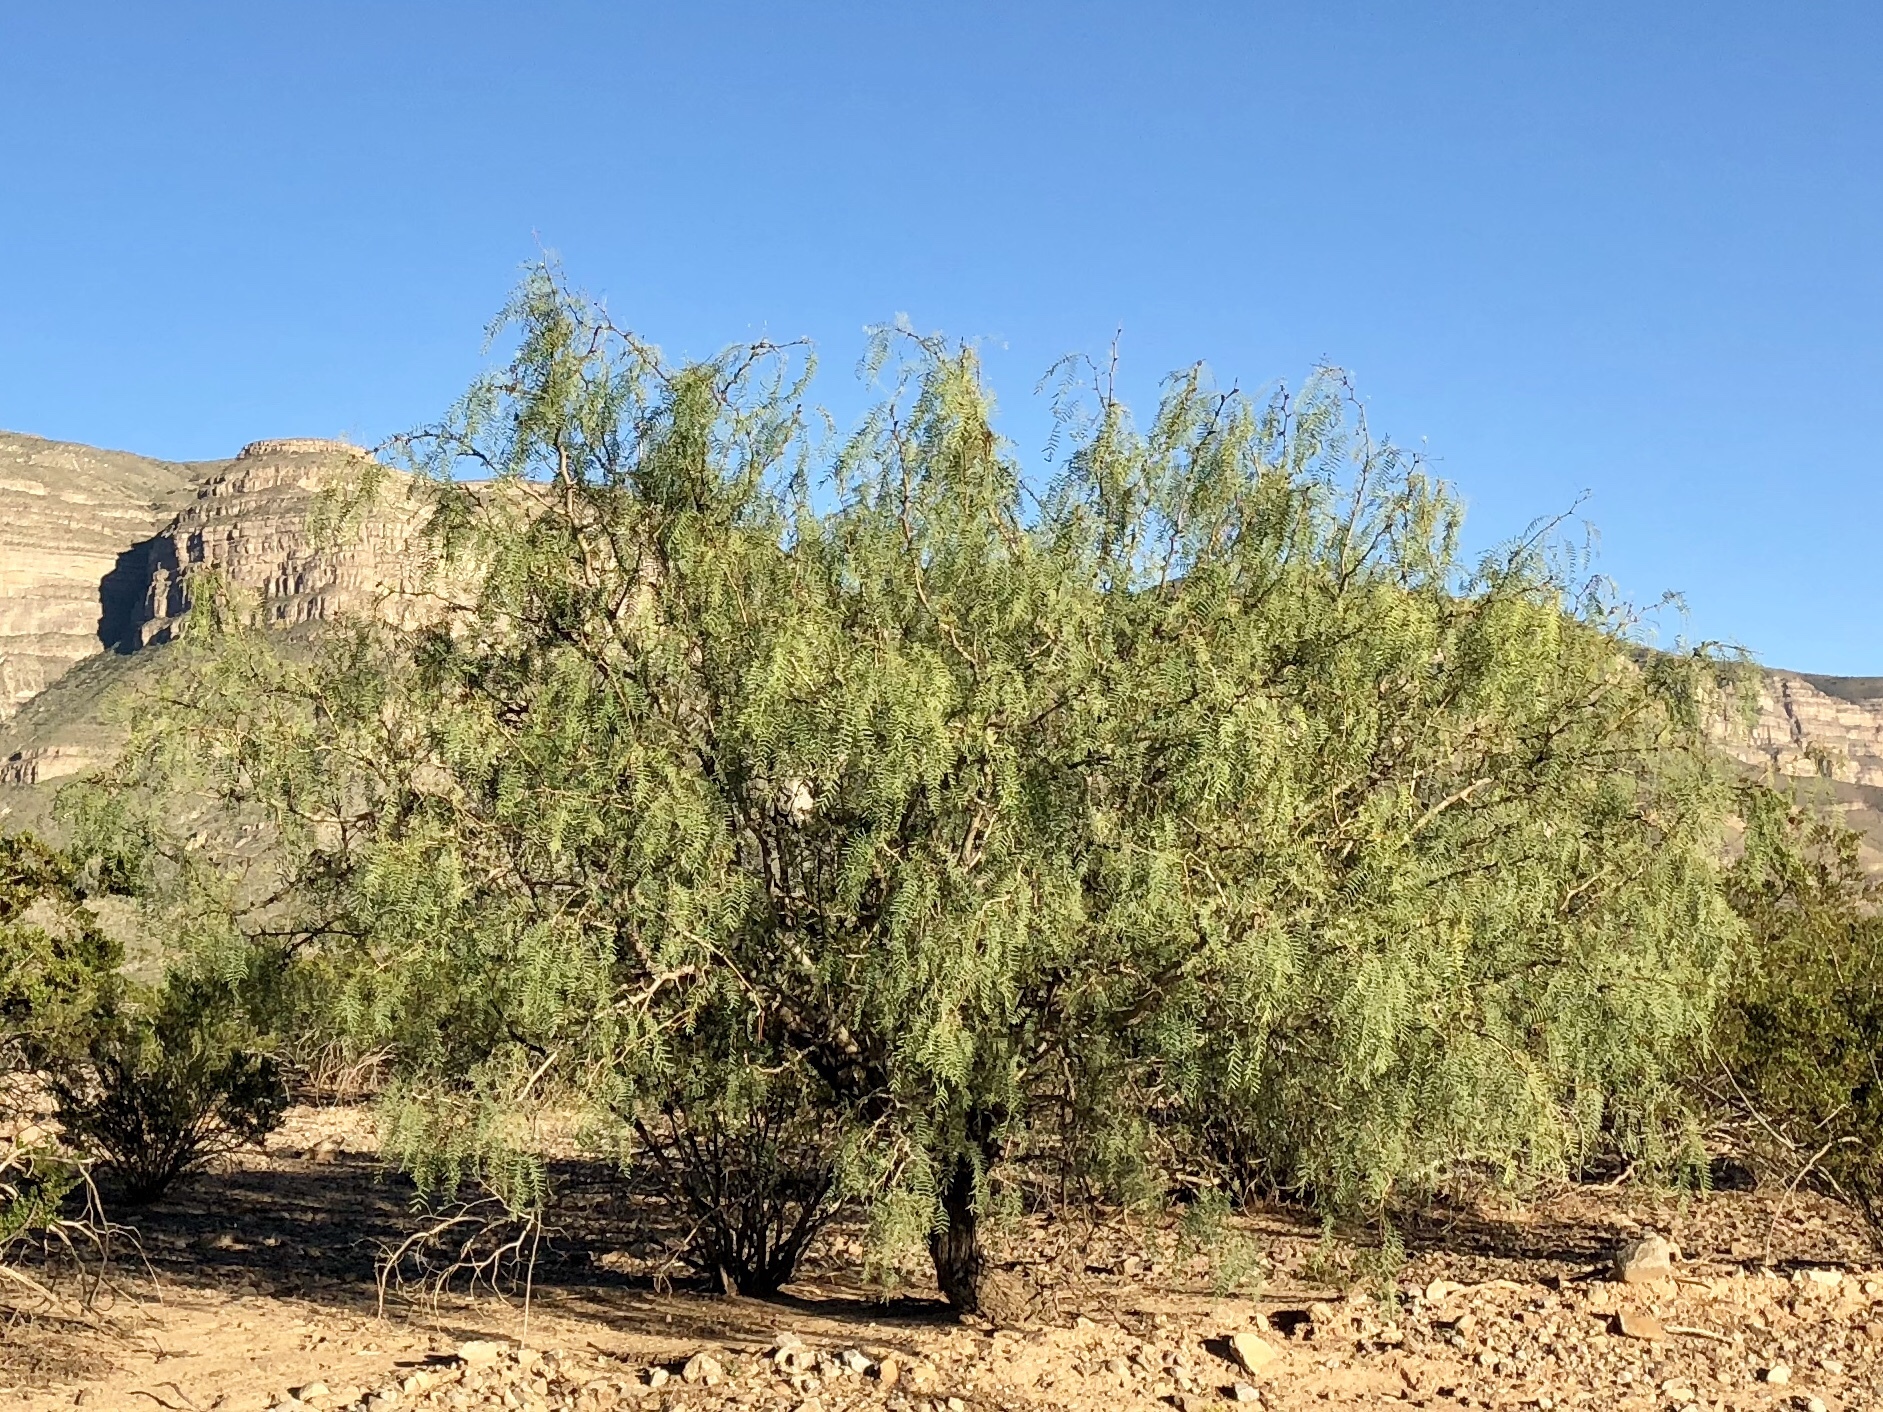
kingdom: Plantae
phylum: Tracheophyta
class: Magnoliopsida
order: Fabales
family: Fabaceae
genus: Prosopis
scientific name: Prosopis glandulosa
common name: Honey mesquite
